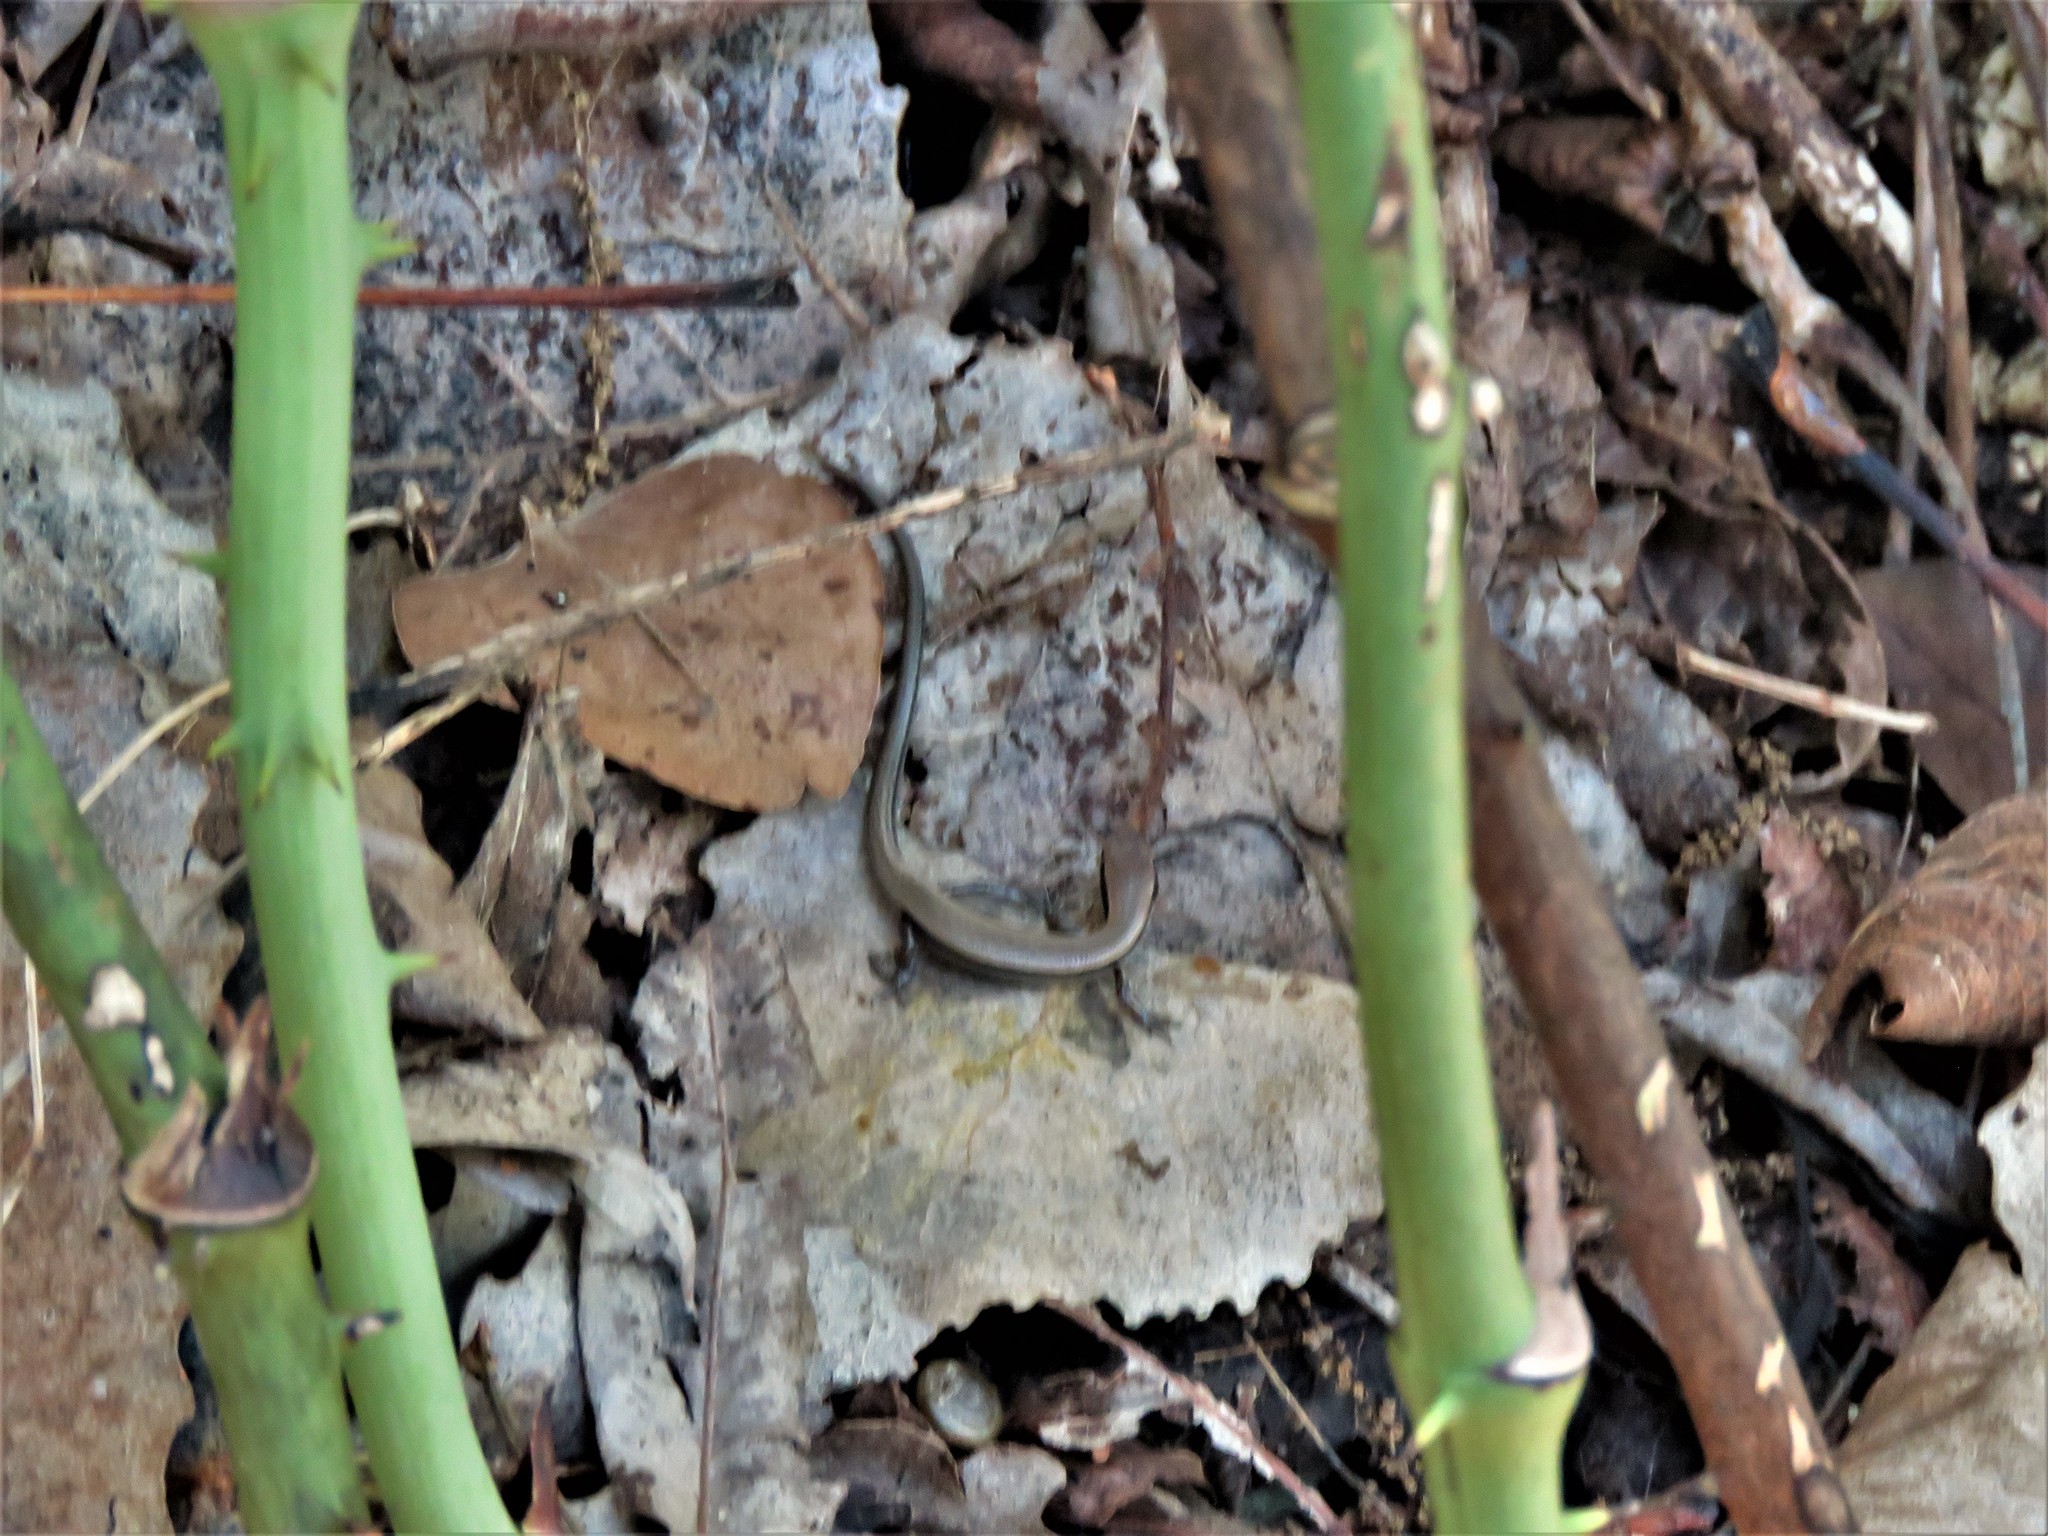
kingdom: Animalia
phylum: Chordata
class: Squamata
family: Scincidae
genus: Scincella
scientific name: Scincella lateralis
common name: Ground skink
